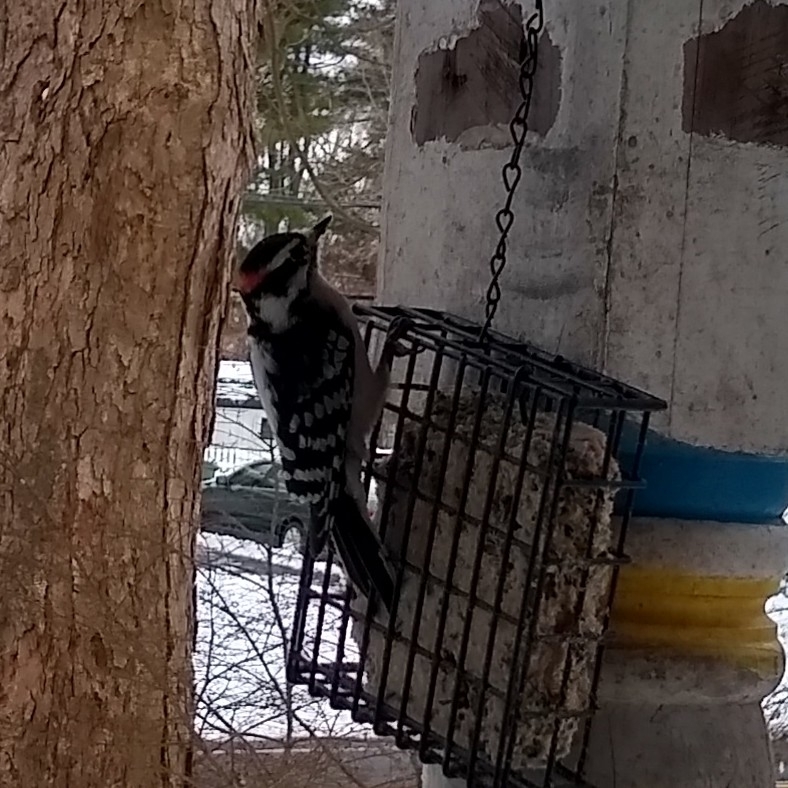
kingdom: Animalia
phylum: Chordata
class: Aves
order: Piciformes
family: Picidae
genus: Dryobates
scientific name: Dryobates pubescens
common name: Downy woodpecker
